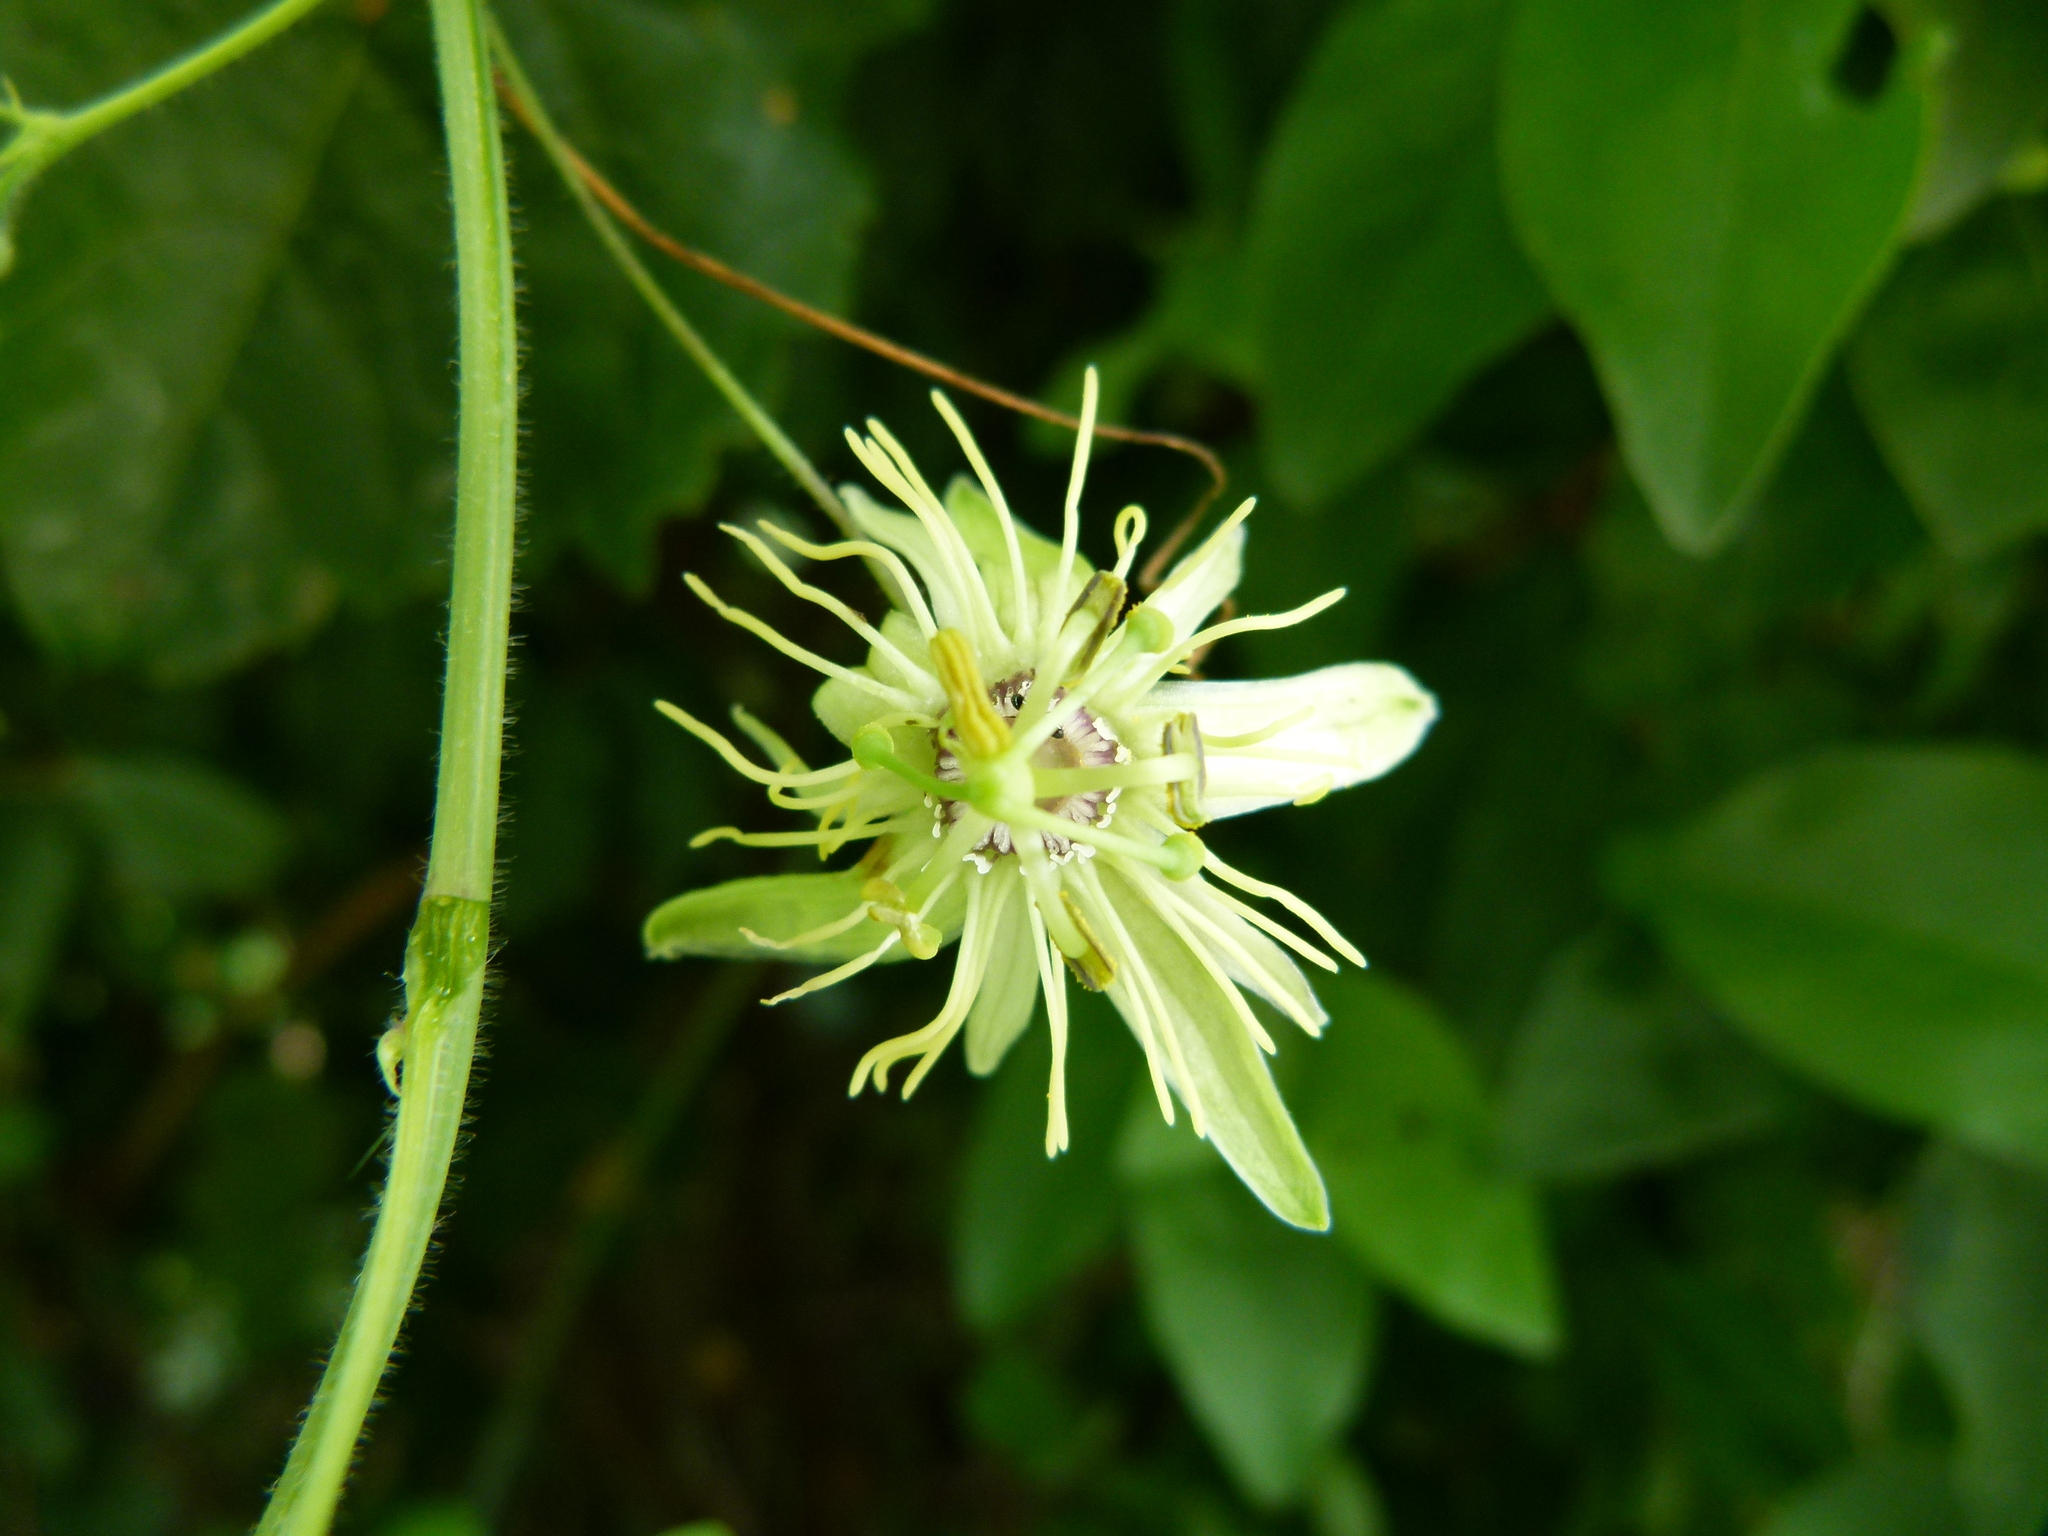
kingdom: Plantae
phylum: Tracheophyta
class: Magnoliopsida
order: Malpighiales
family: Passifloraceae
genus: Passiflora
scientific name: Passiflora lutea
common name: Yellow passionflower
